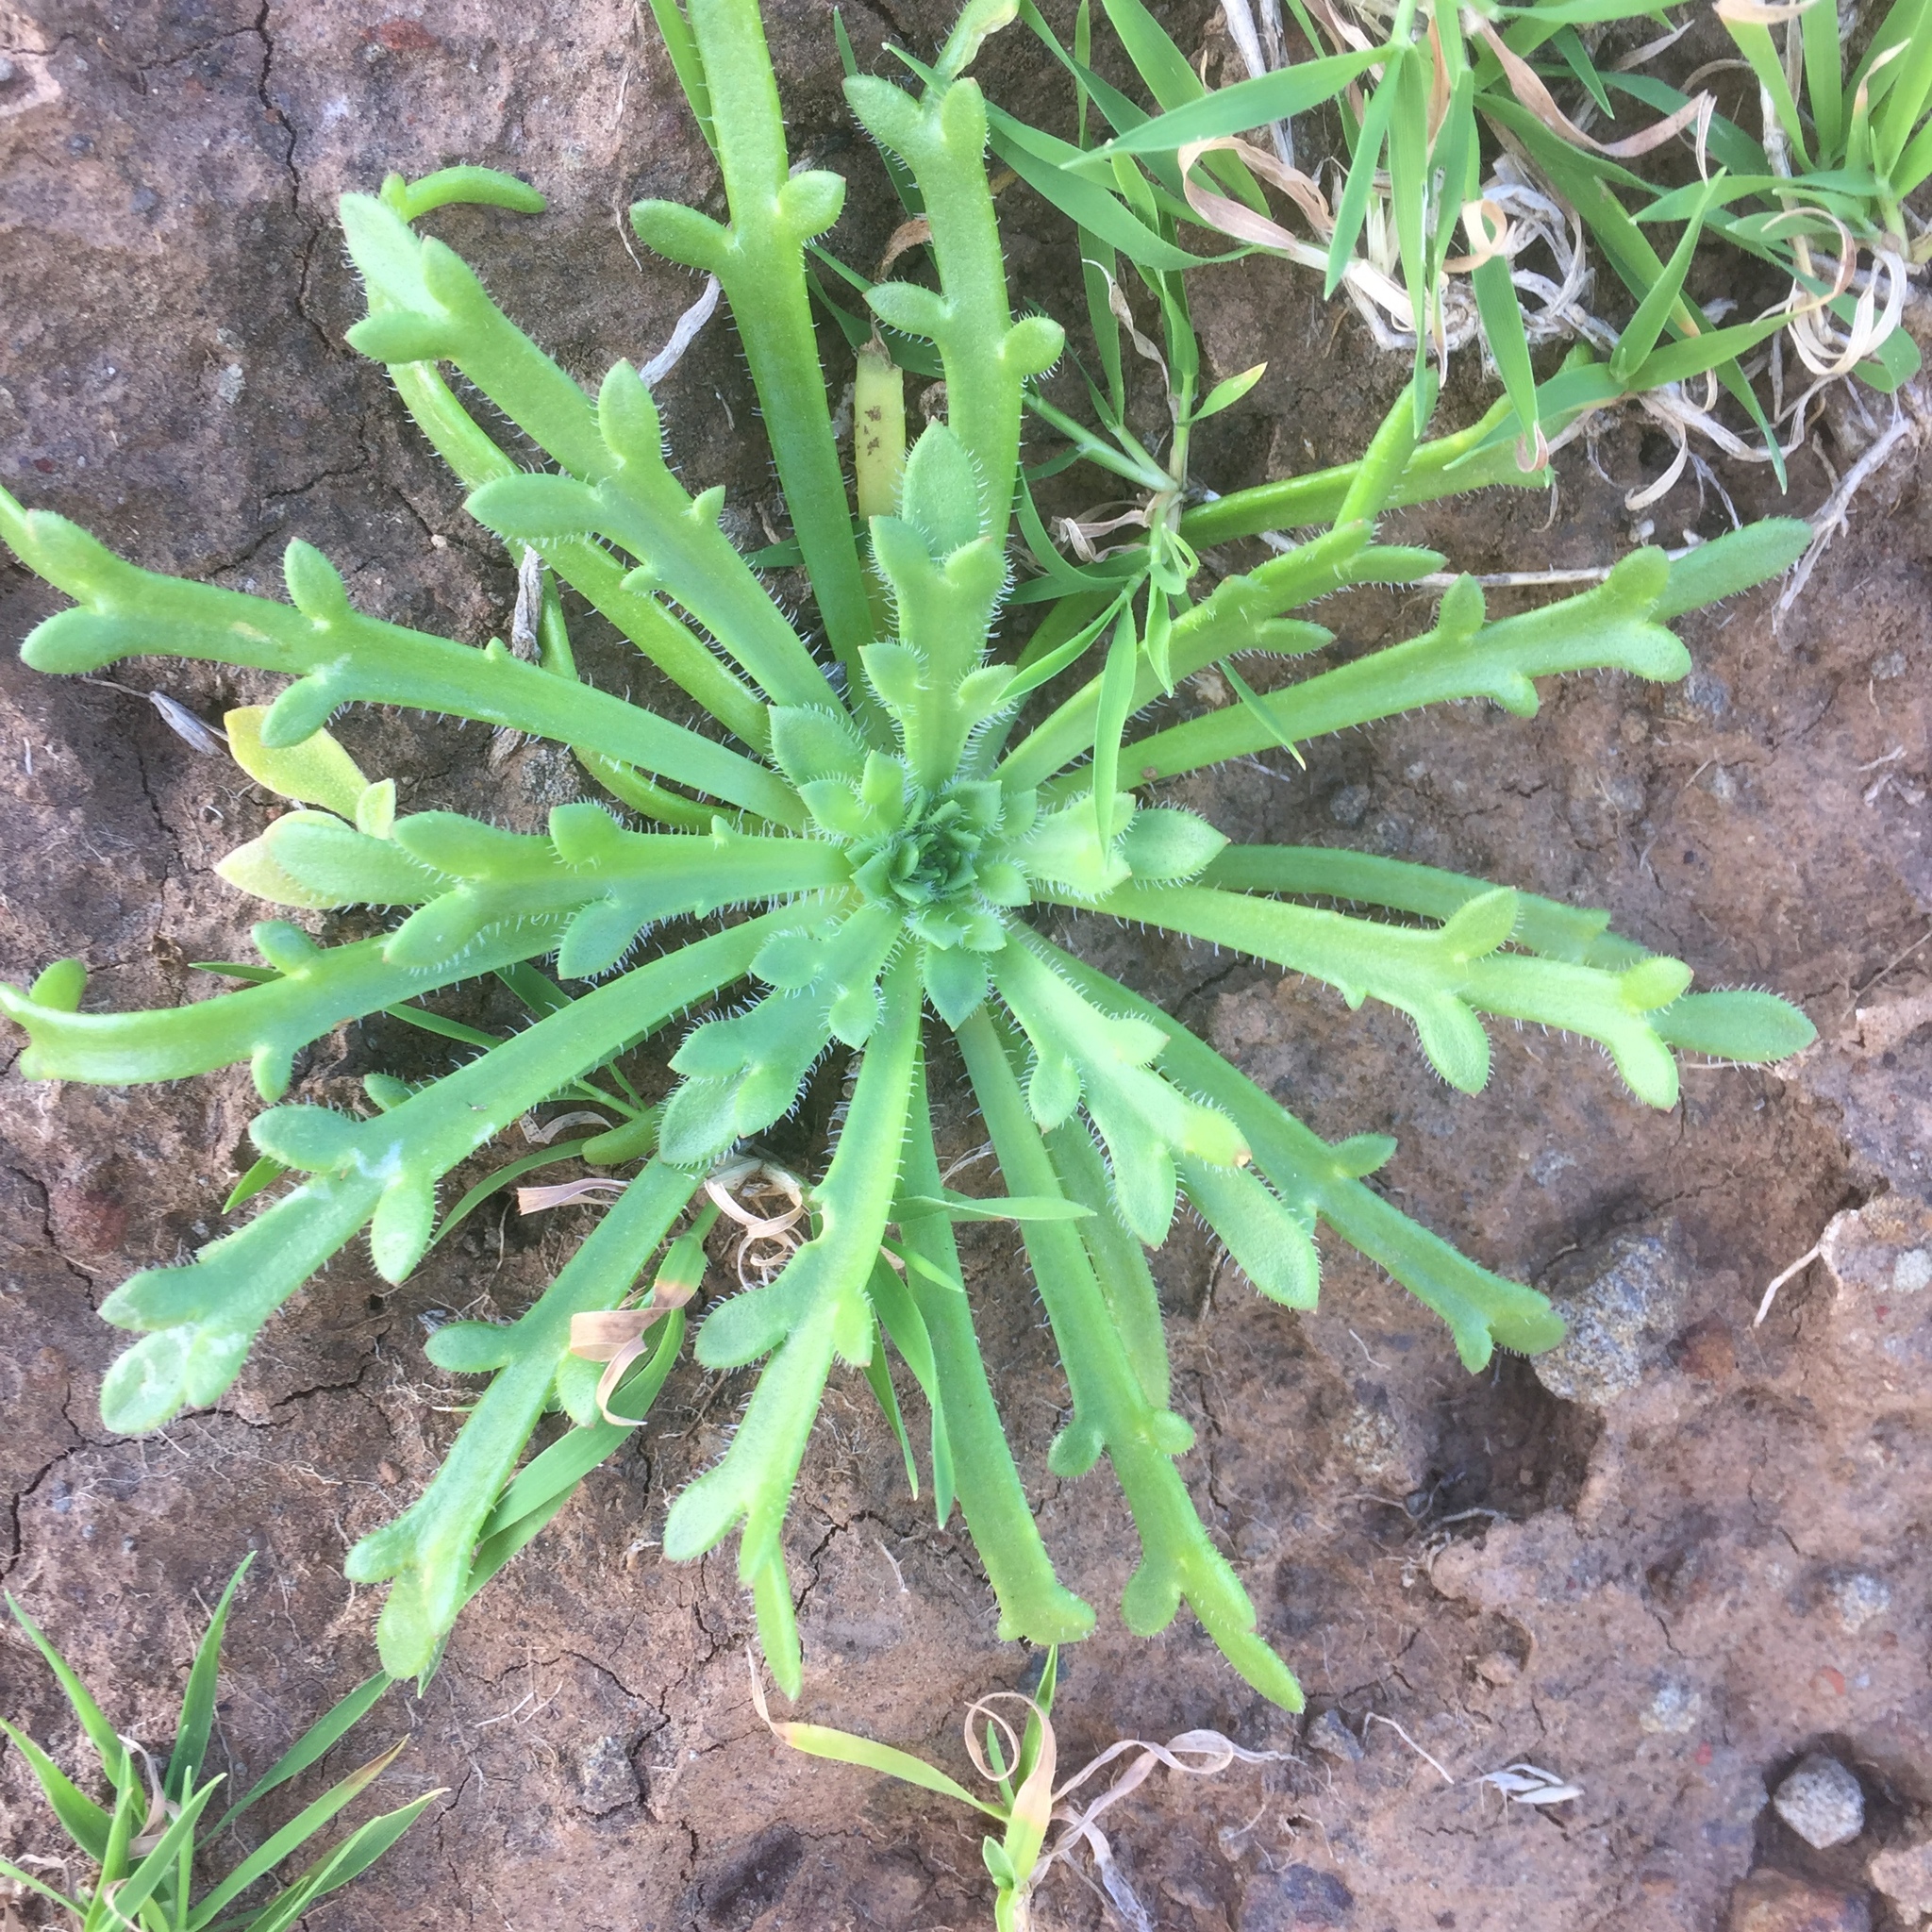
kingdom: Plantae
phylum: Tracheophyta
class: Magnoliopsida
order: Lamiales
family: Plantaginaceae
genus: Plantago
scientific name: Plantago coronopus
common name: Buck's-horn plantain
